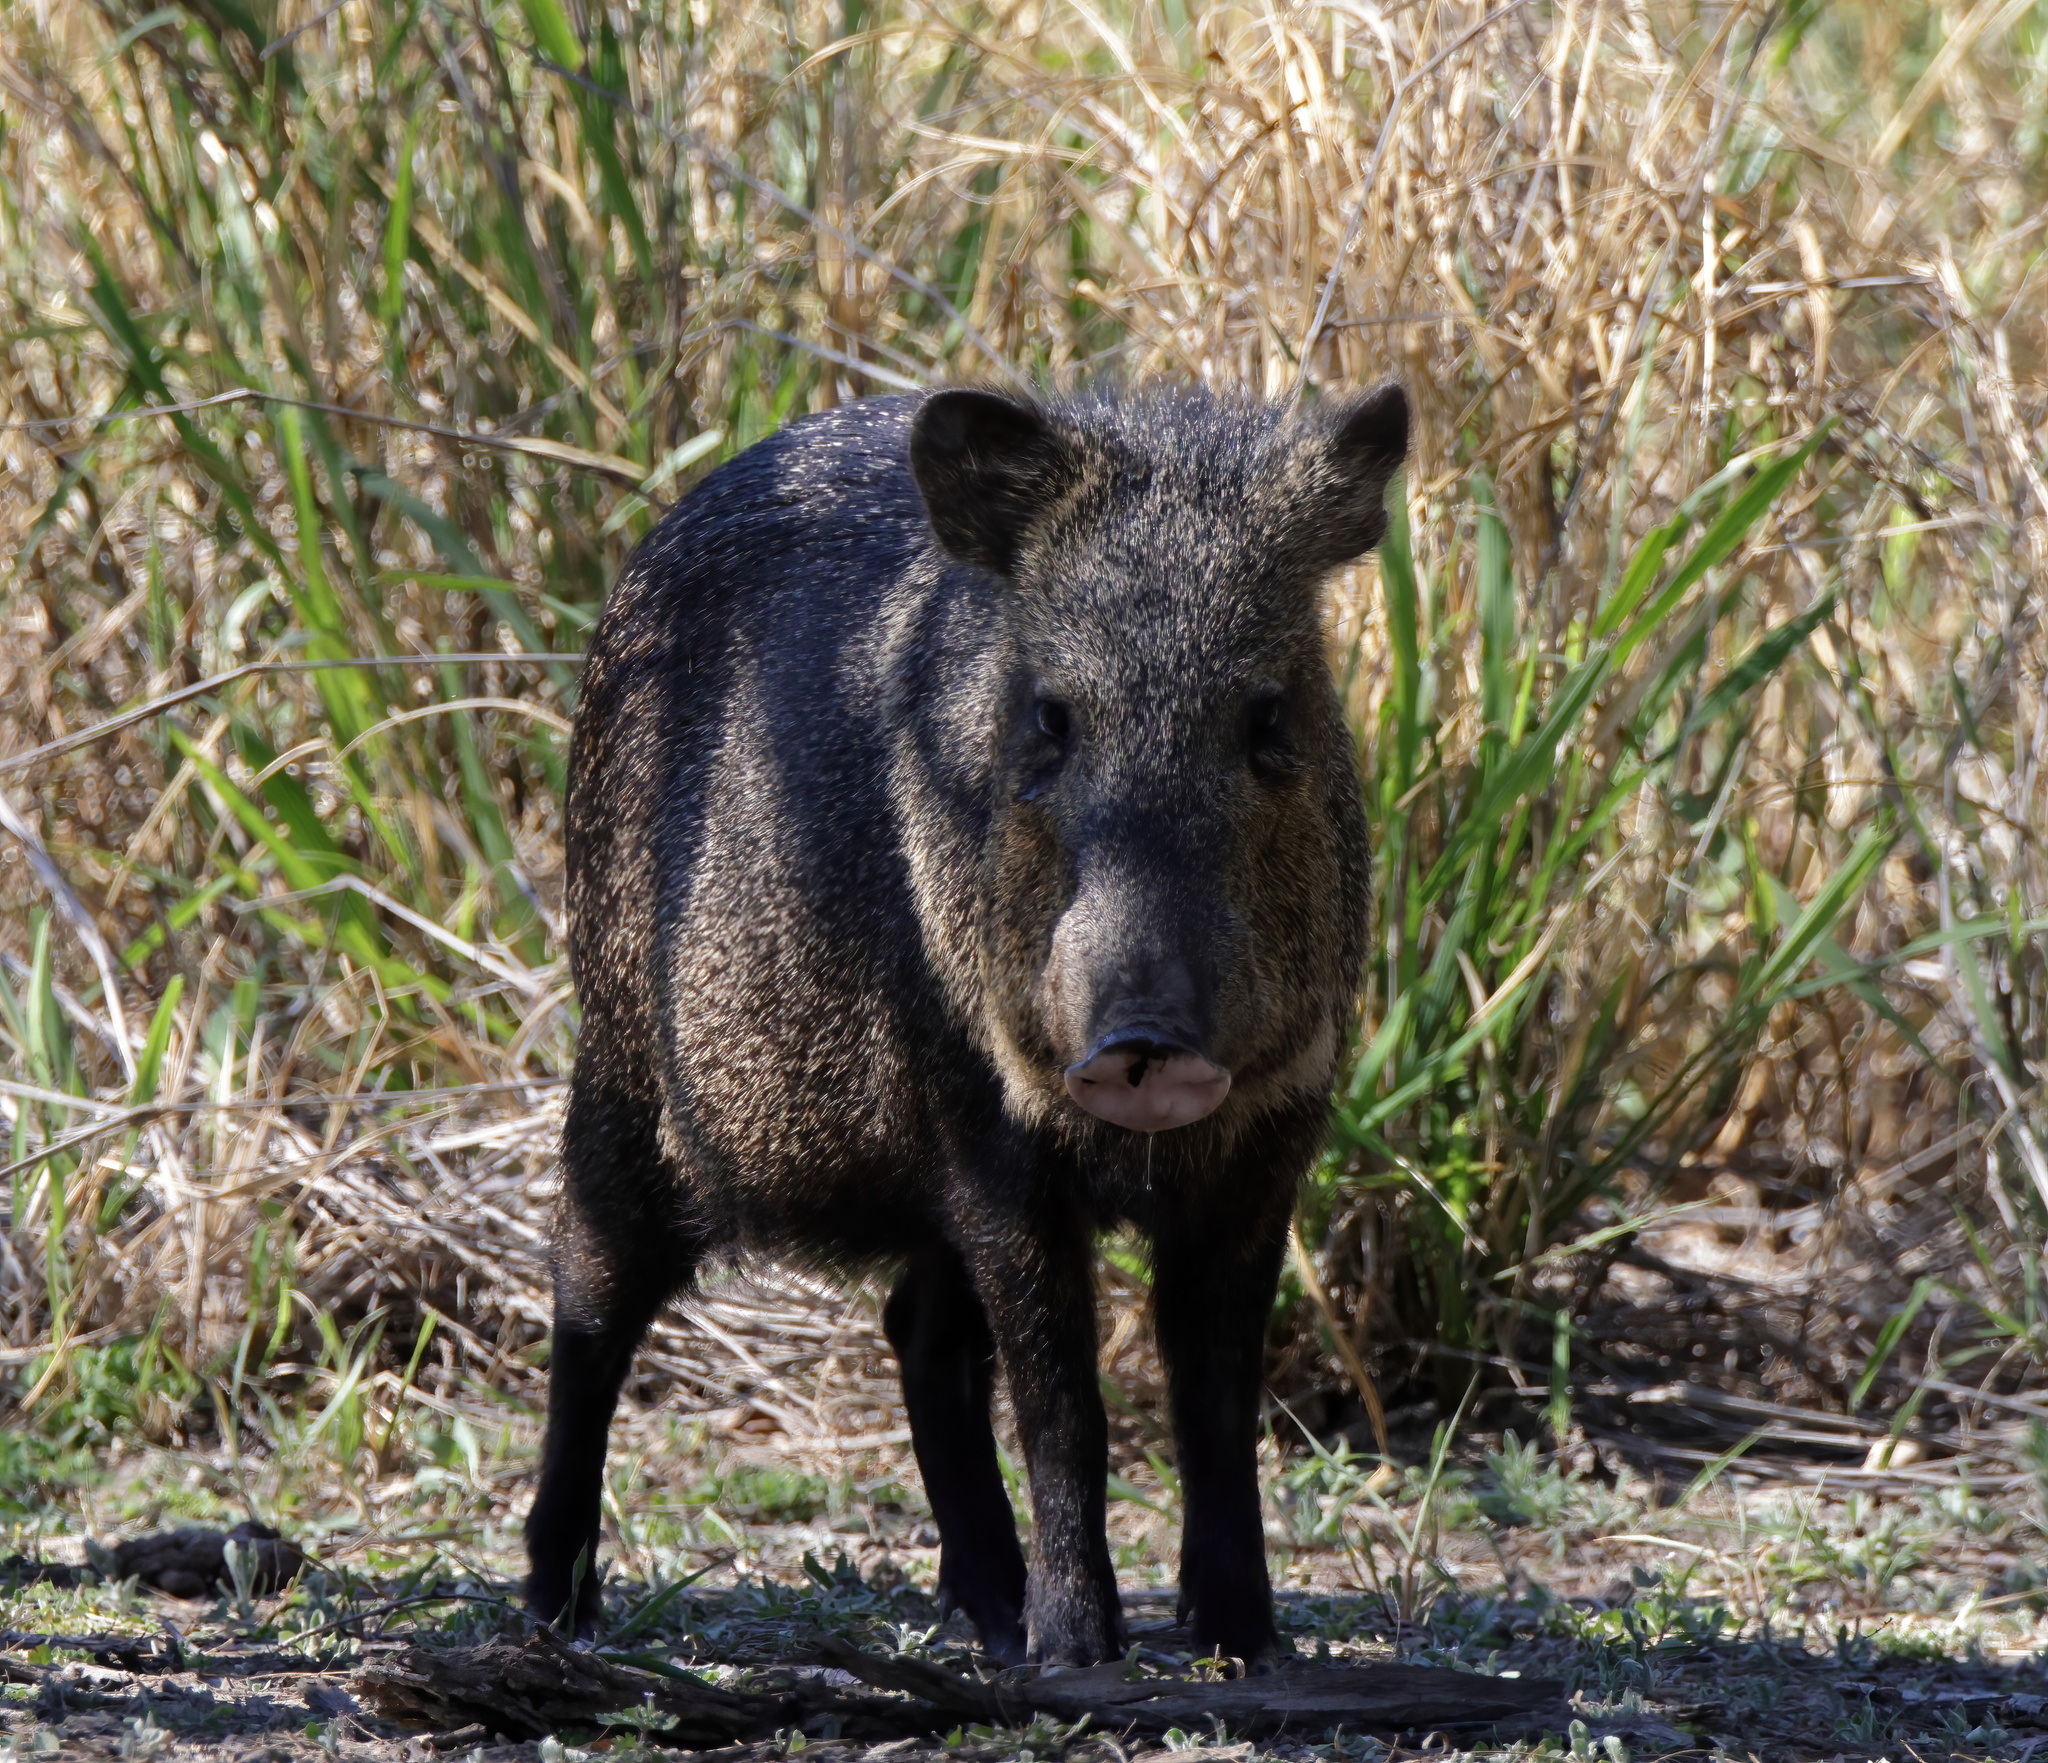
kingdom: Animalia
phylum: Chordata
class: Mammalia
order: Artiodactyla
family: Tayassuidae
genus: Pecari
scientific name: Pecari tajacu
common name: Collared peccary
